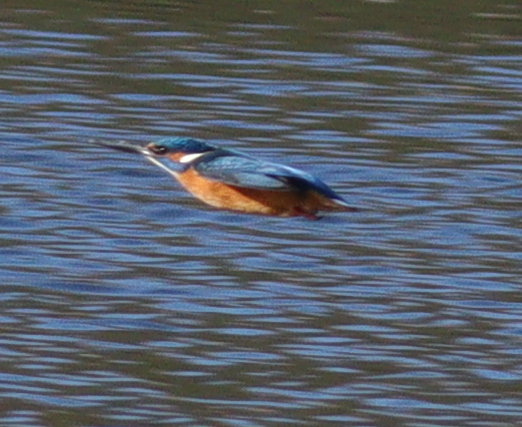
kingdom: Animalia
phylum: Chordata
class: Aves
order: Coraciiformes
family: Alcedinidae
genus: Alcedo
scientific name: Alcedo atthis
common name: Common kingfisher
